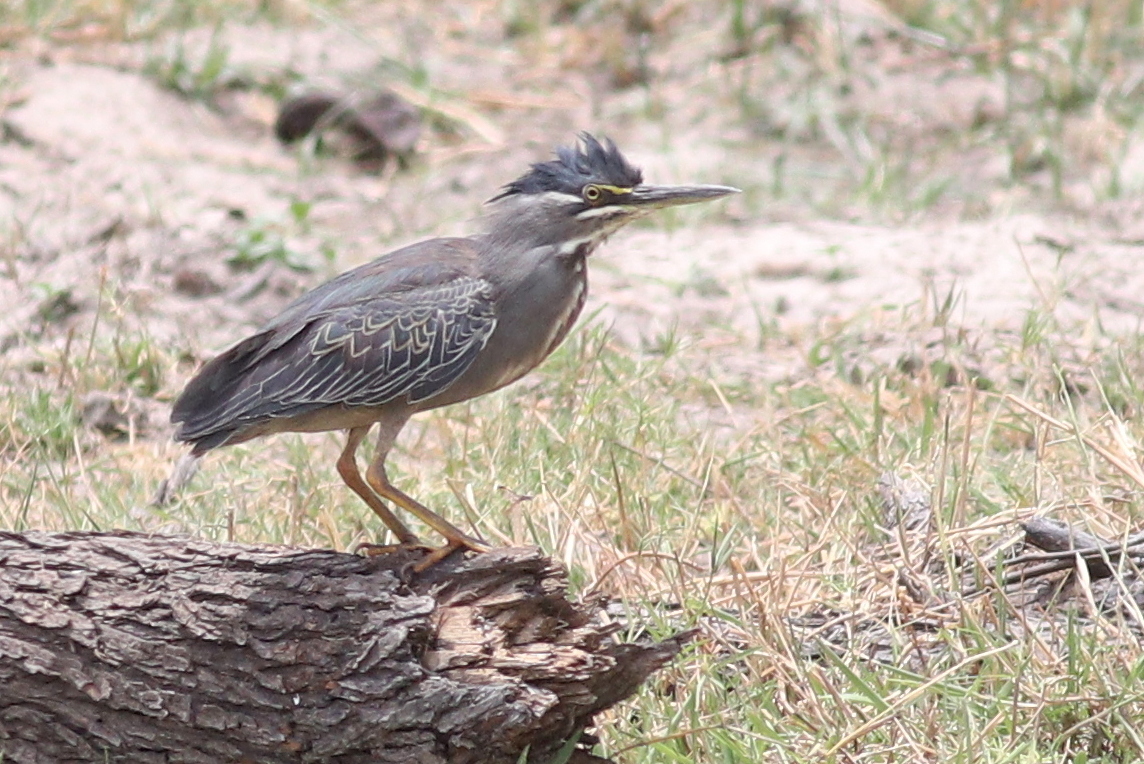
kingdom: Animalia
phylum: Chordata
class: Aves
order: Pelecaniformes
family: Ardeidae
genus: Butorides
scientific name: Butorides striata
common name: Striated heron
